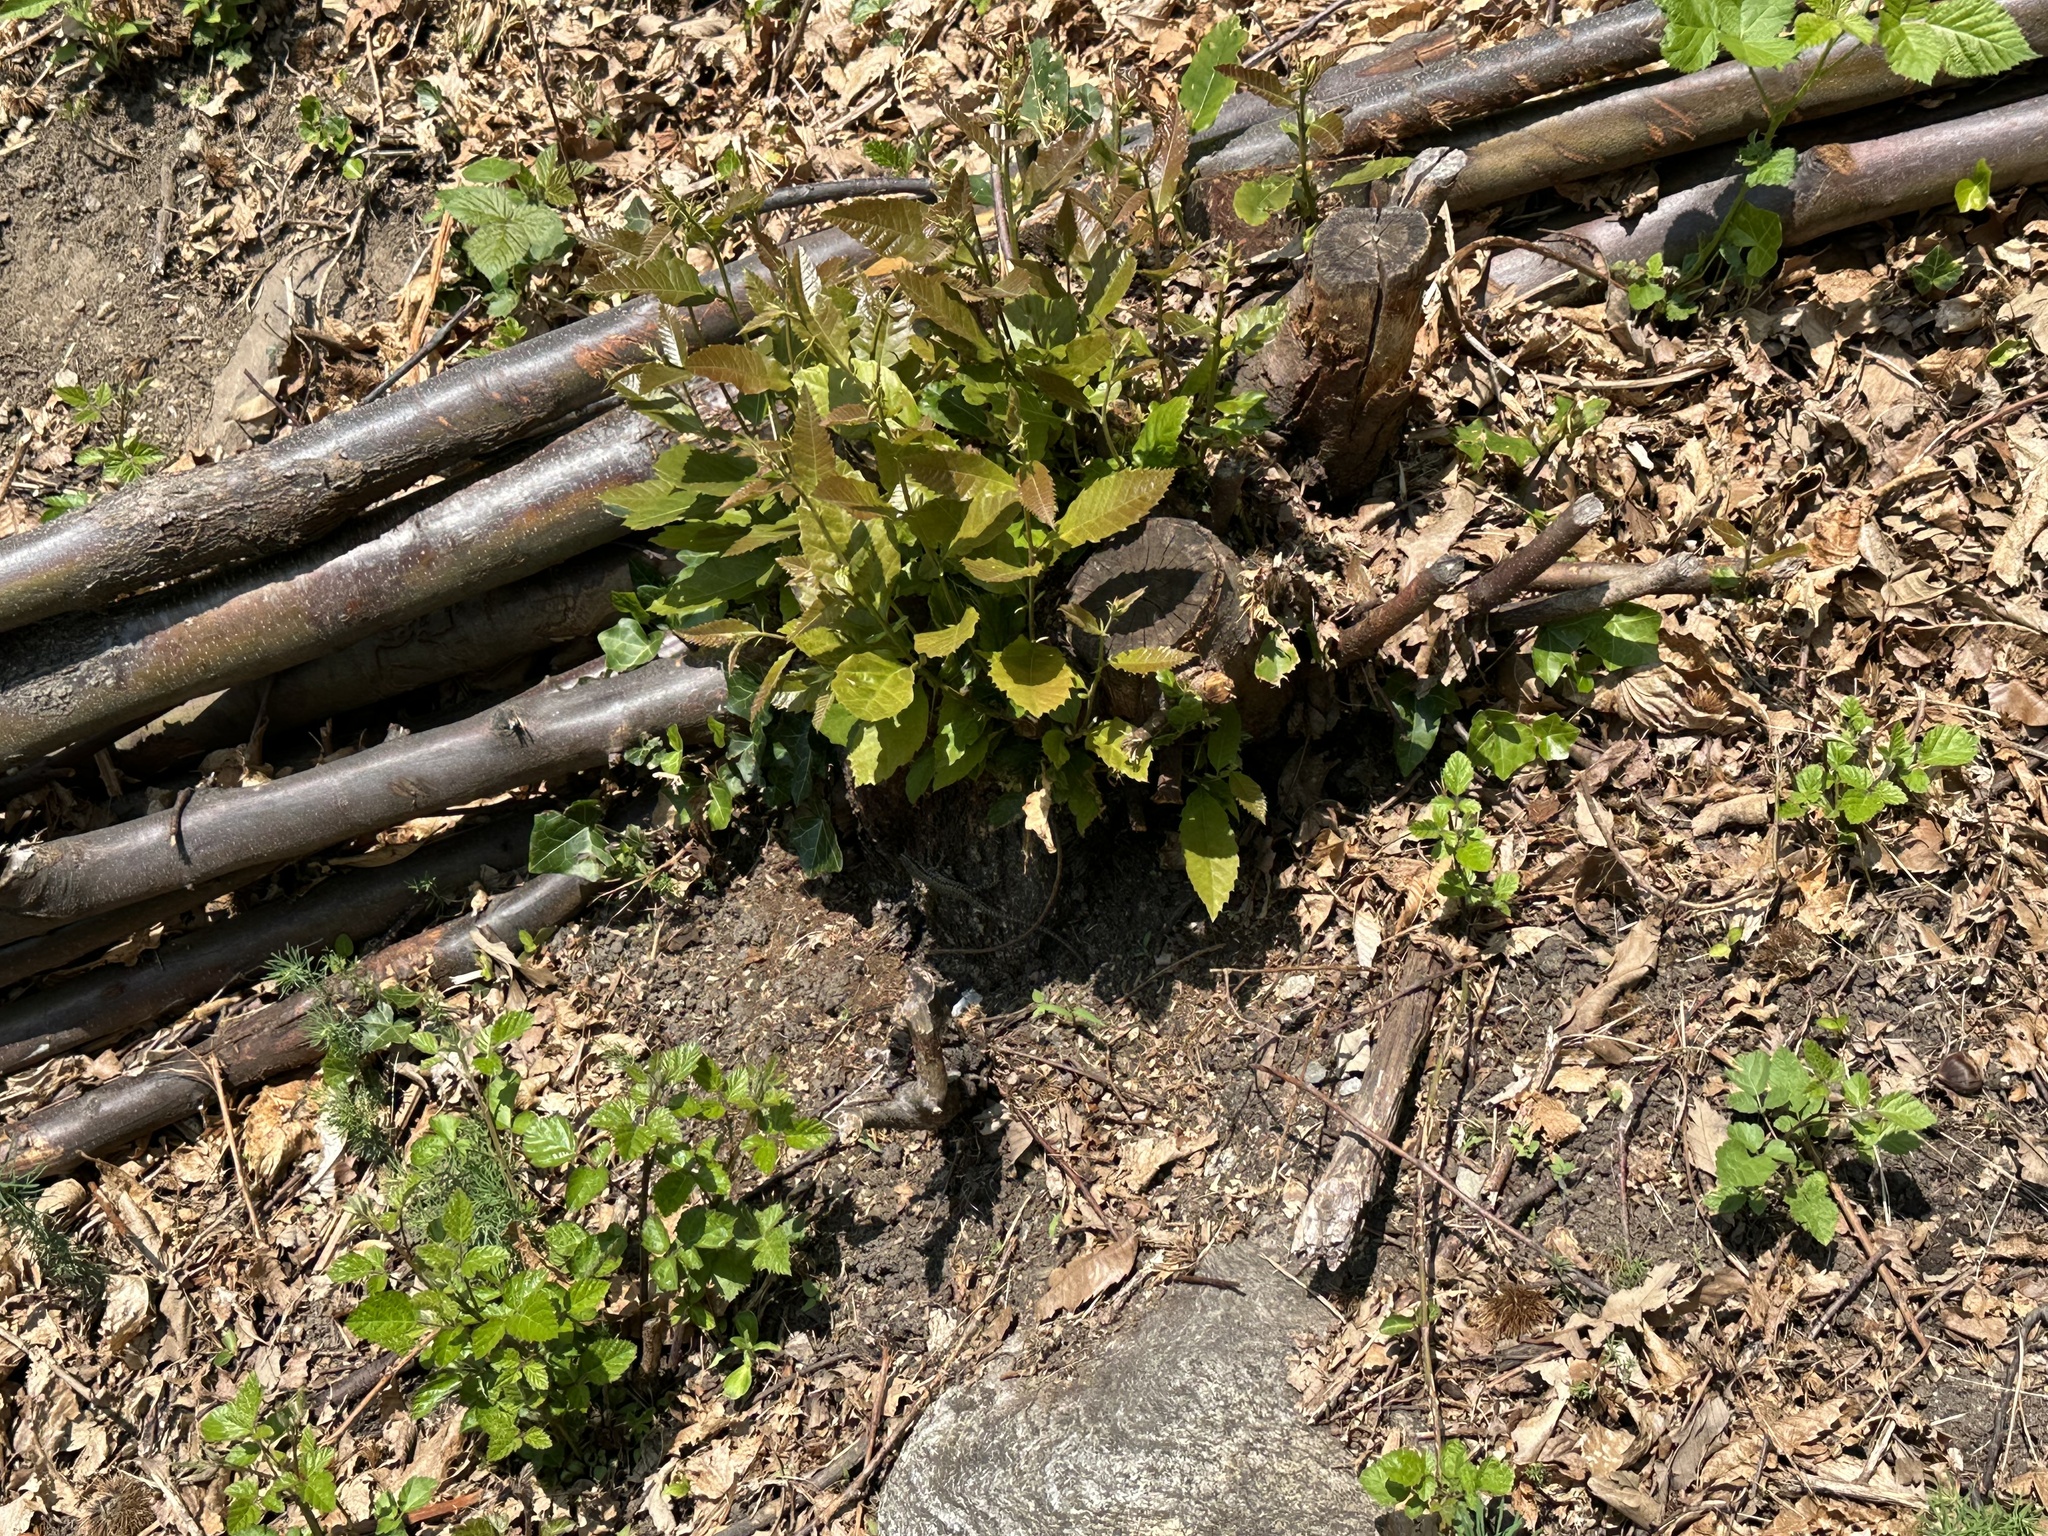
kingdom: Animalia
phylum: Chordata
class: Squamata
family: Lacertidae
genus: Podarcis
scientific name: Podarcis muralis
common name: Common wall lizard
